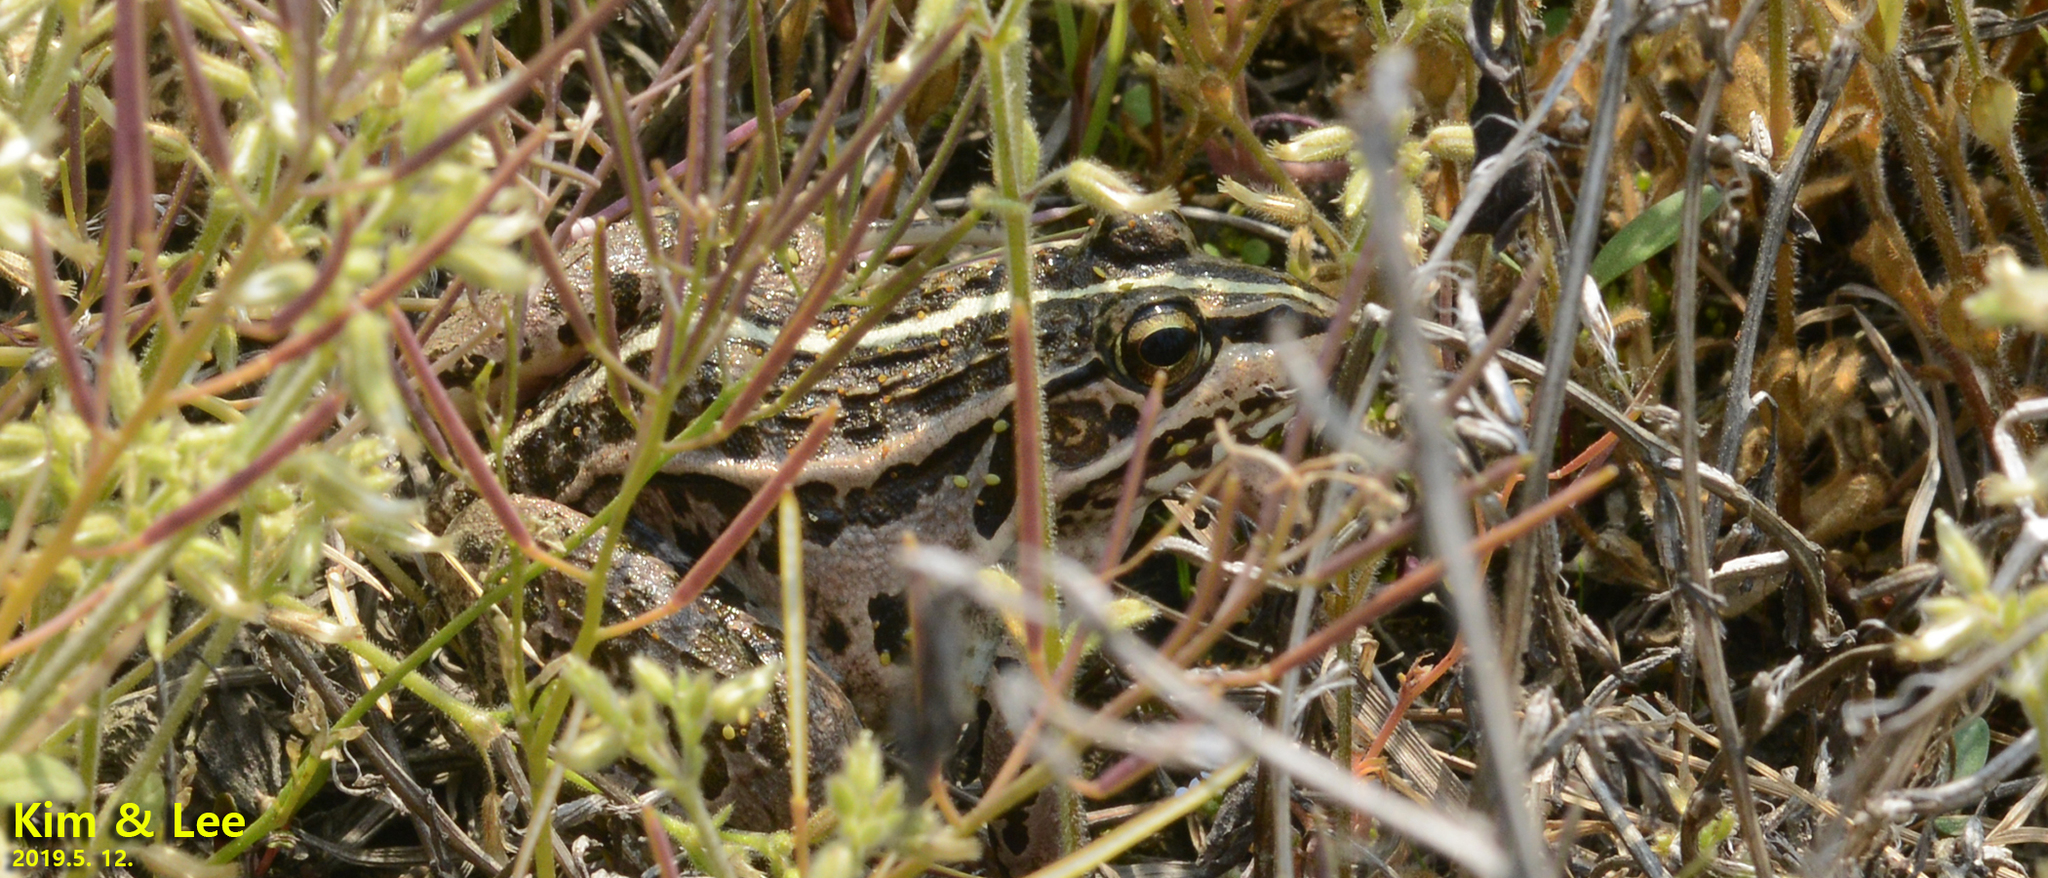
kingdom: Animalia
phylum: Chordata
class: Amphibia
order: Anura
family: Ranidae
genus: Pelophylax
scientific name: Pelophylax nigromaculatus
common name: Black-spotted pond frog
